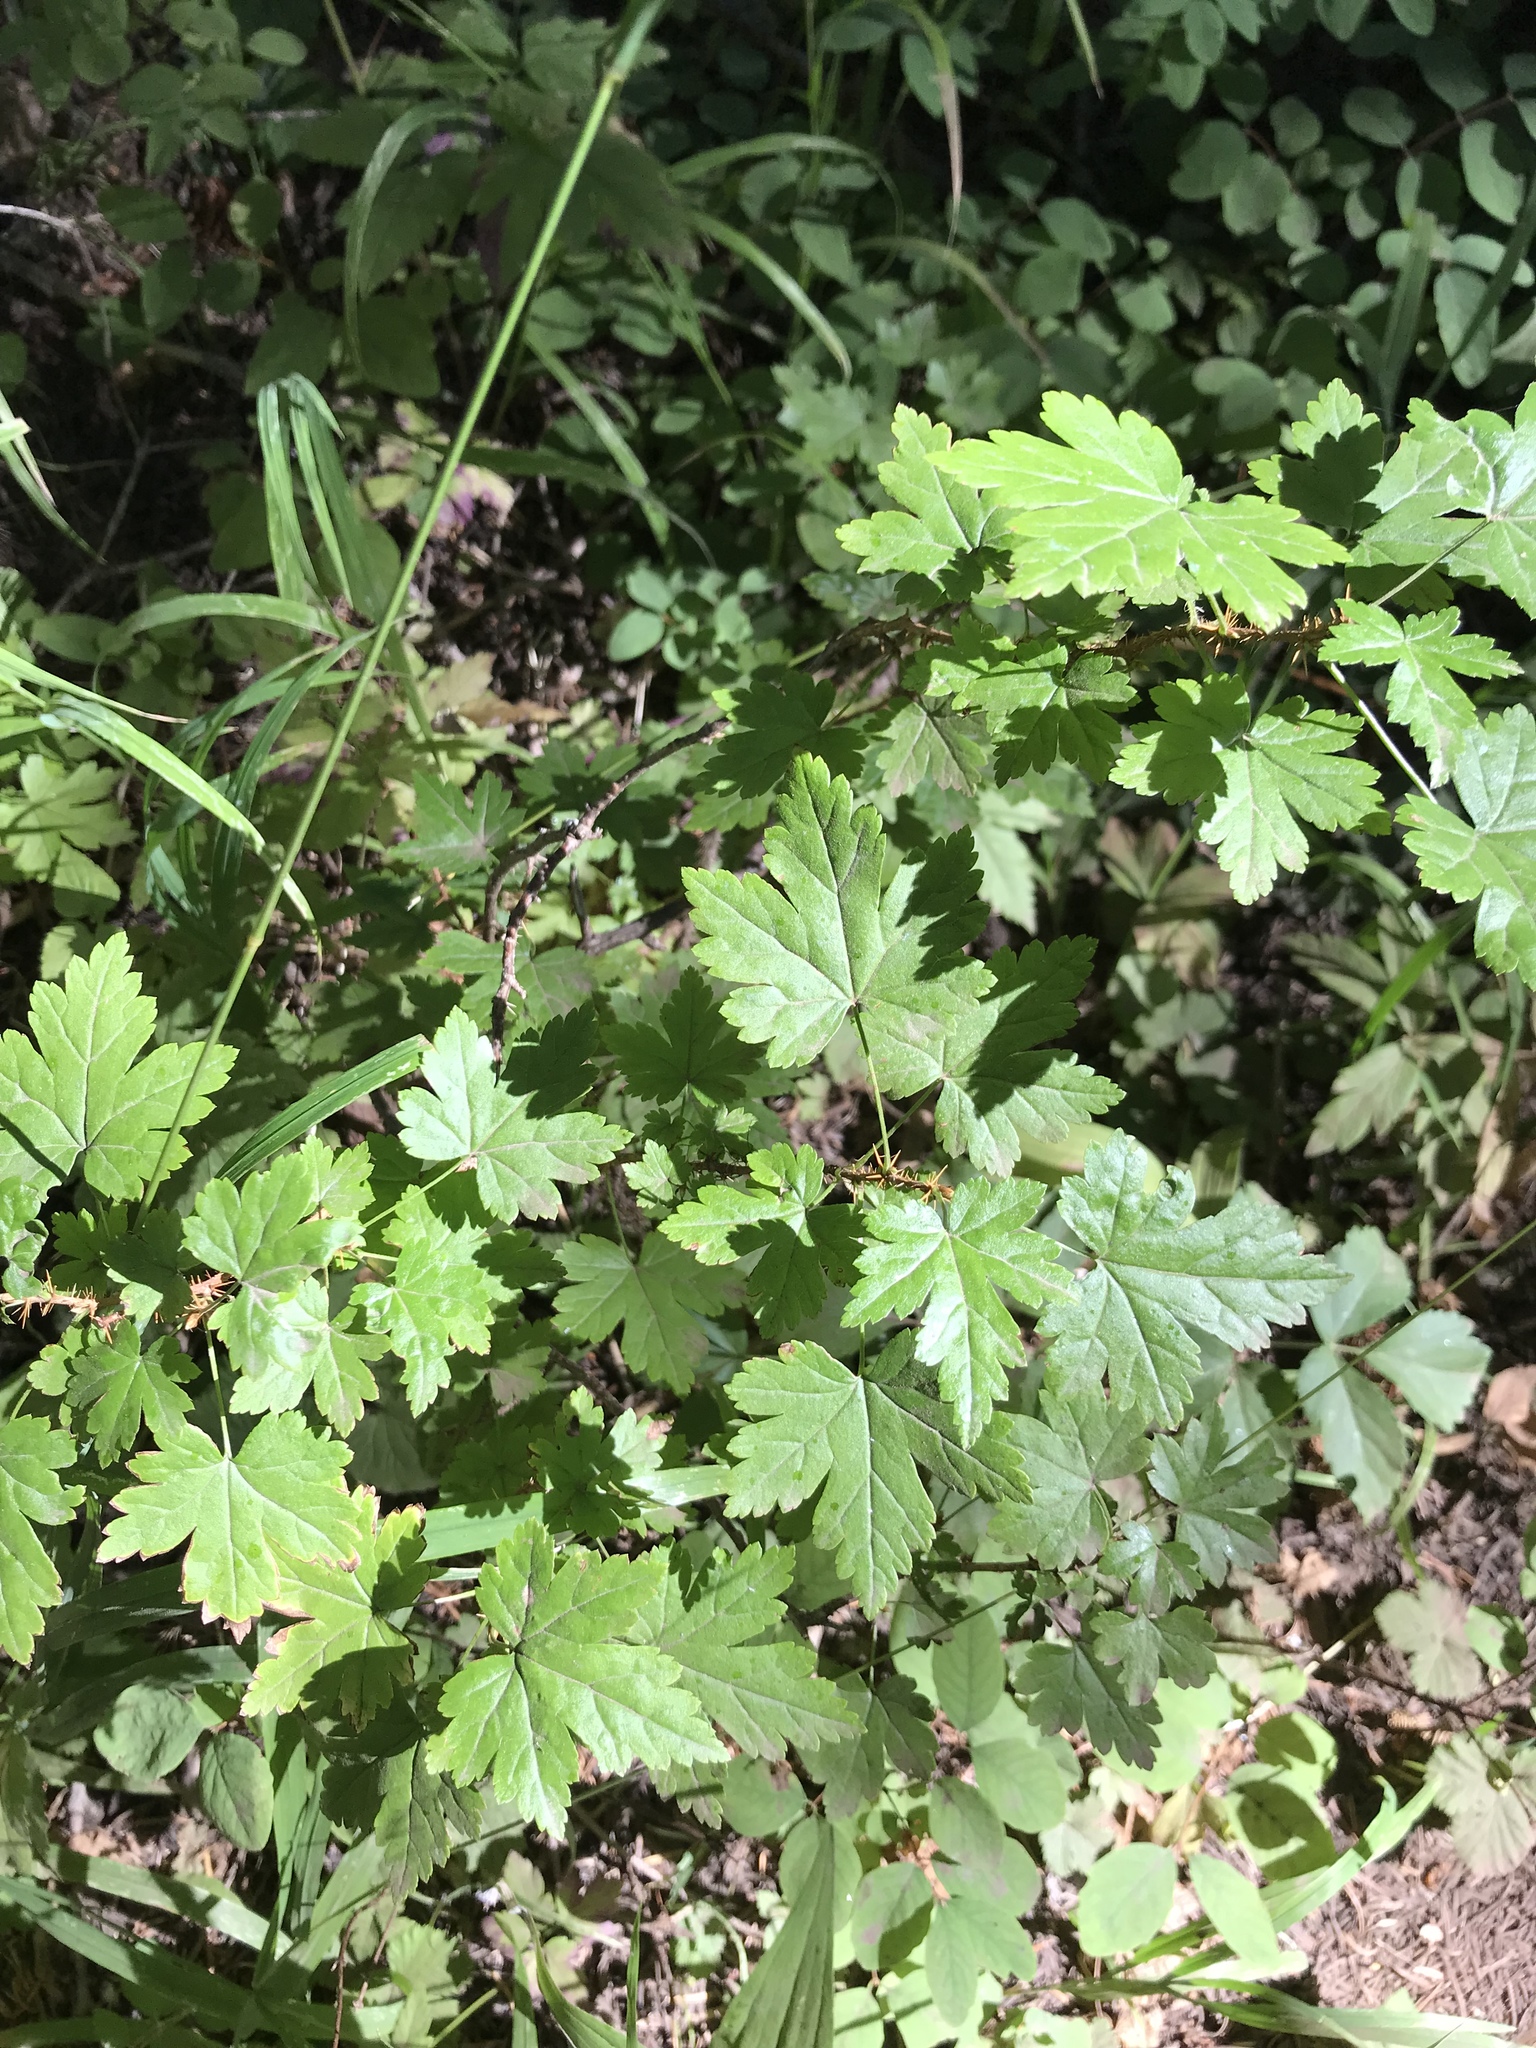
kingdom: Plantae
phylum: Tracheophyta
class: Magnoliopsida
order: Saxifragales
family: Grossulariaceae
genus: Ribes
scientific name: Ribes lacustre
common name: Black gooseberry
